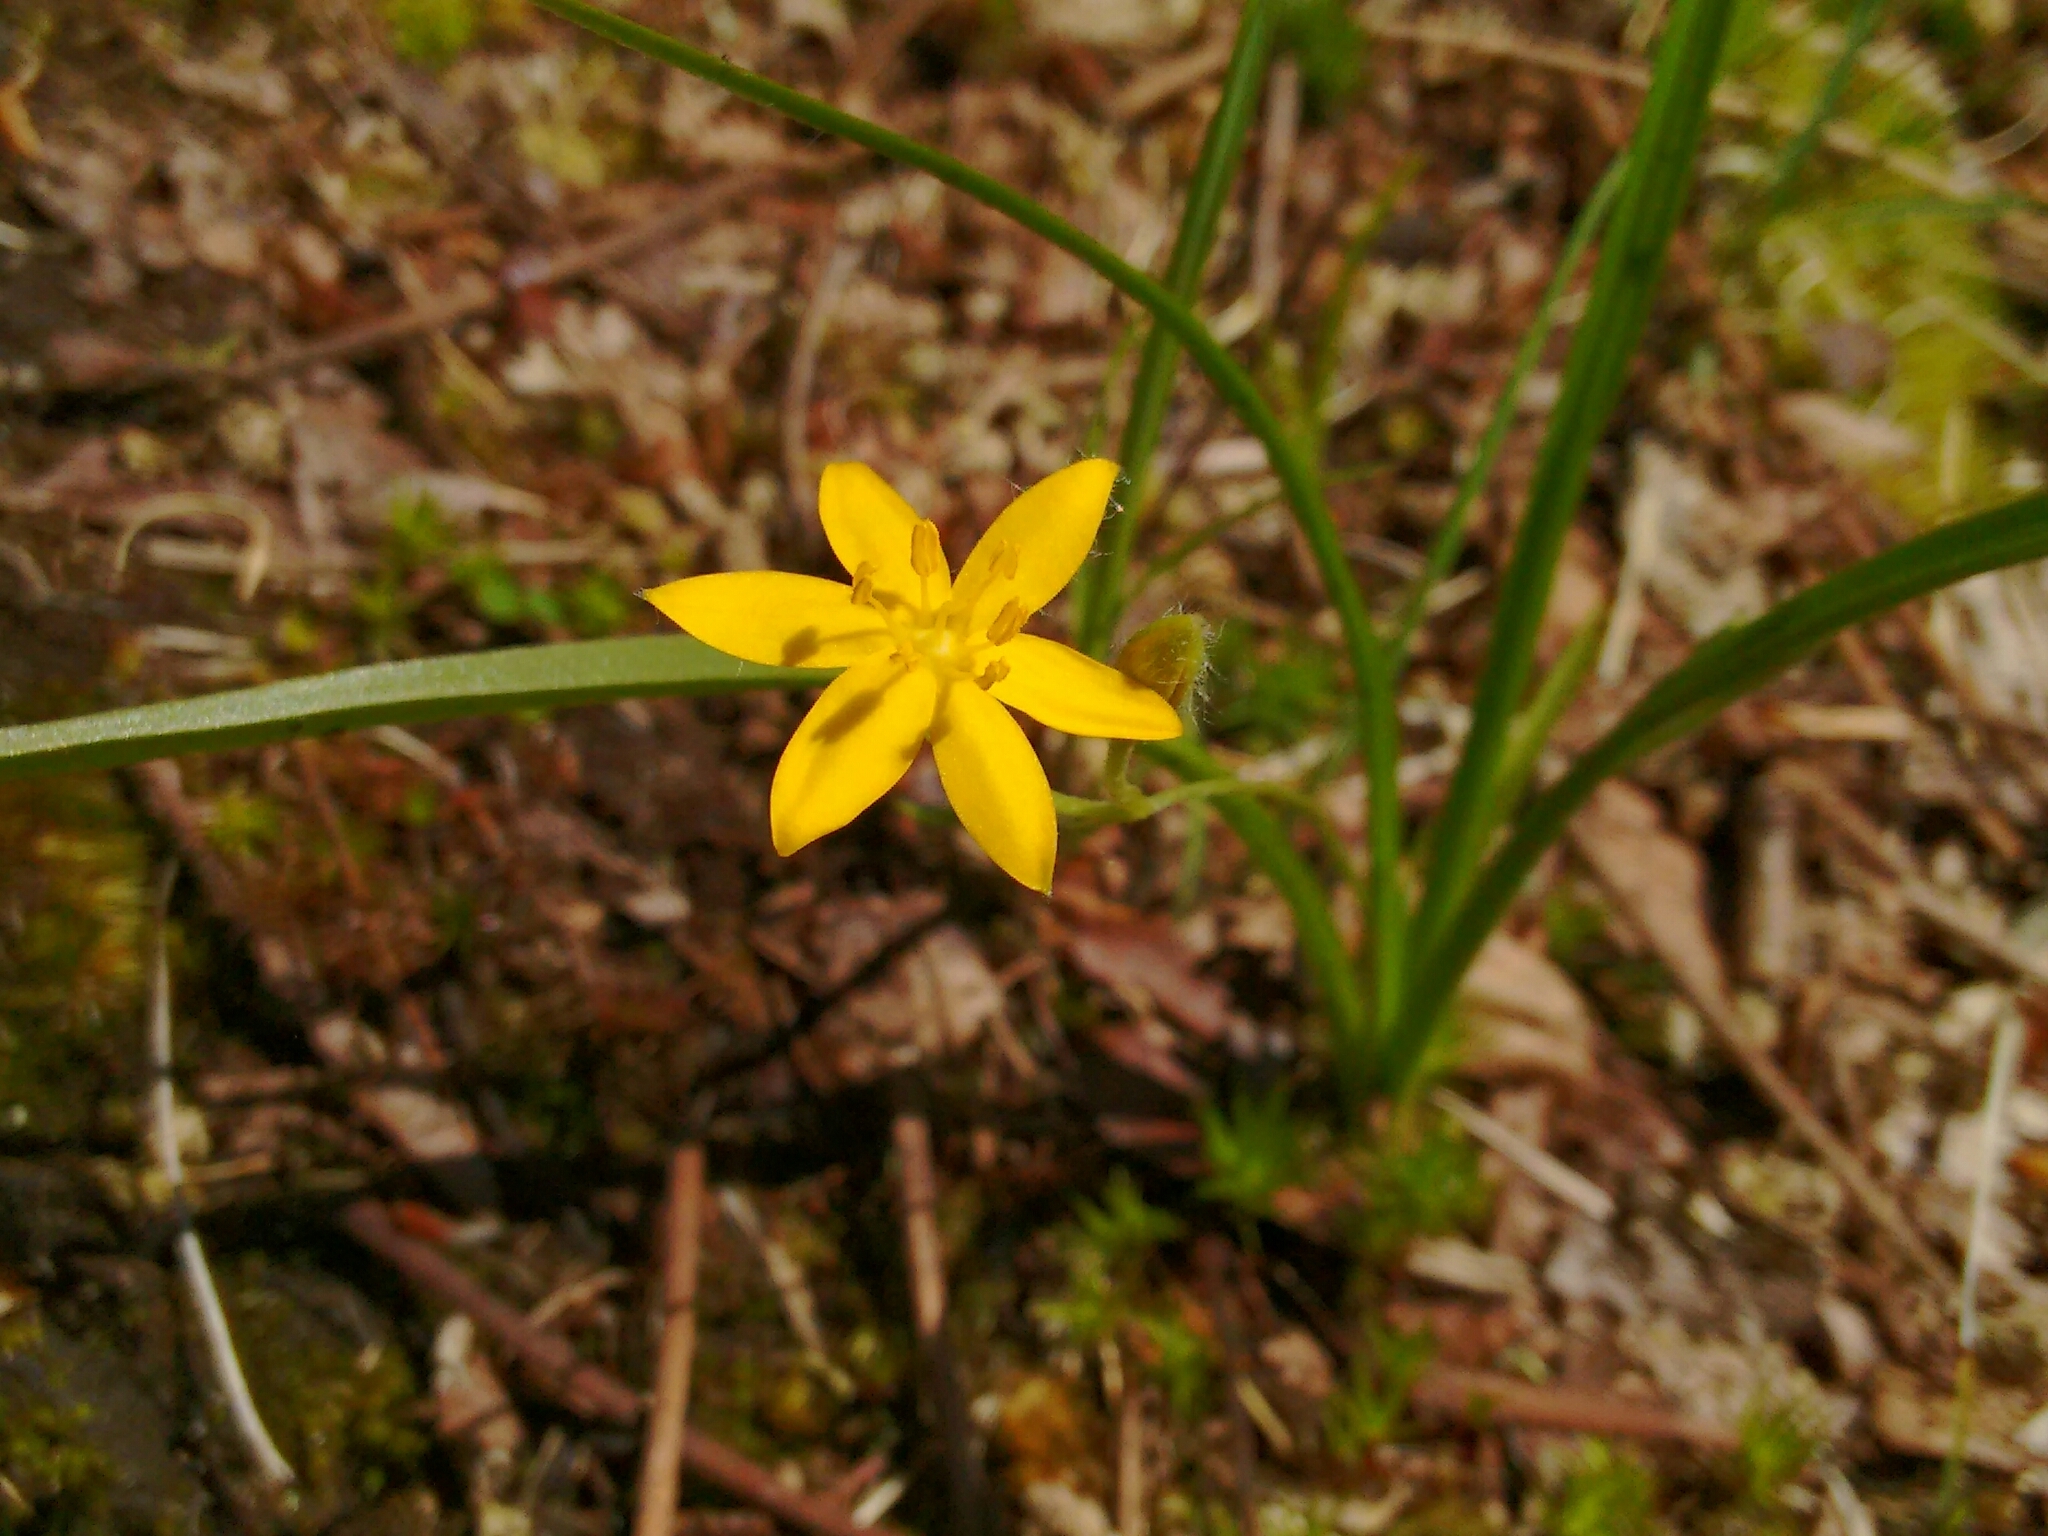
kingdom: Plantae
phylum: Tracheophyta
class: Liliopsida
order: Asparagales
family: Hypoxidaceae
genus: Hypoxis
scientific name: Hypoxis hirsuta
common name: Common goldstar
